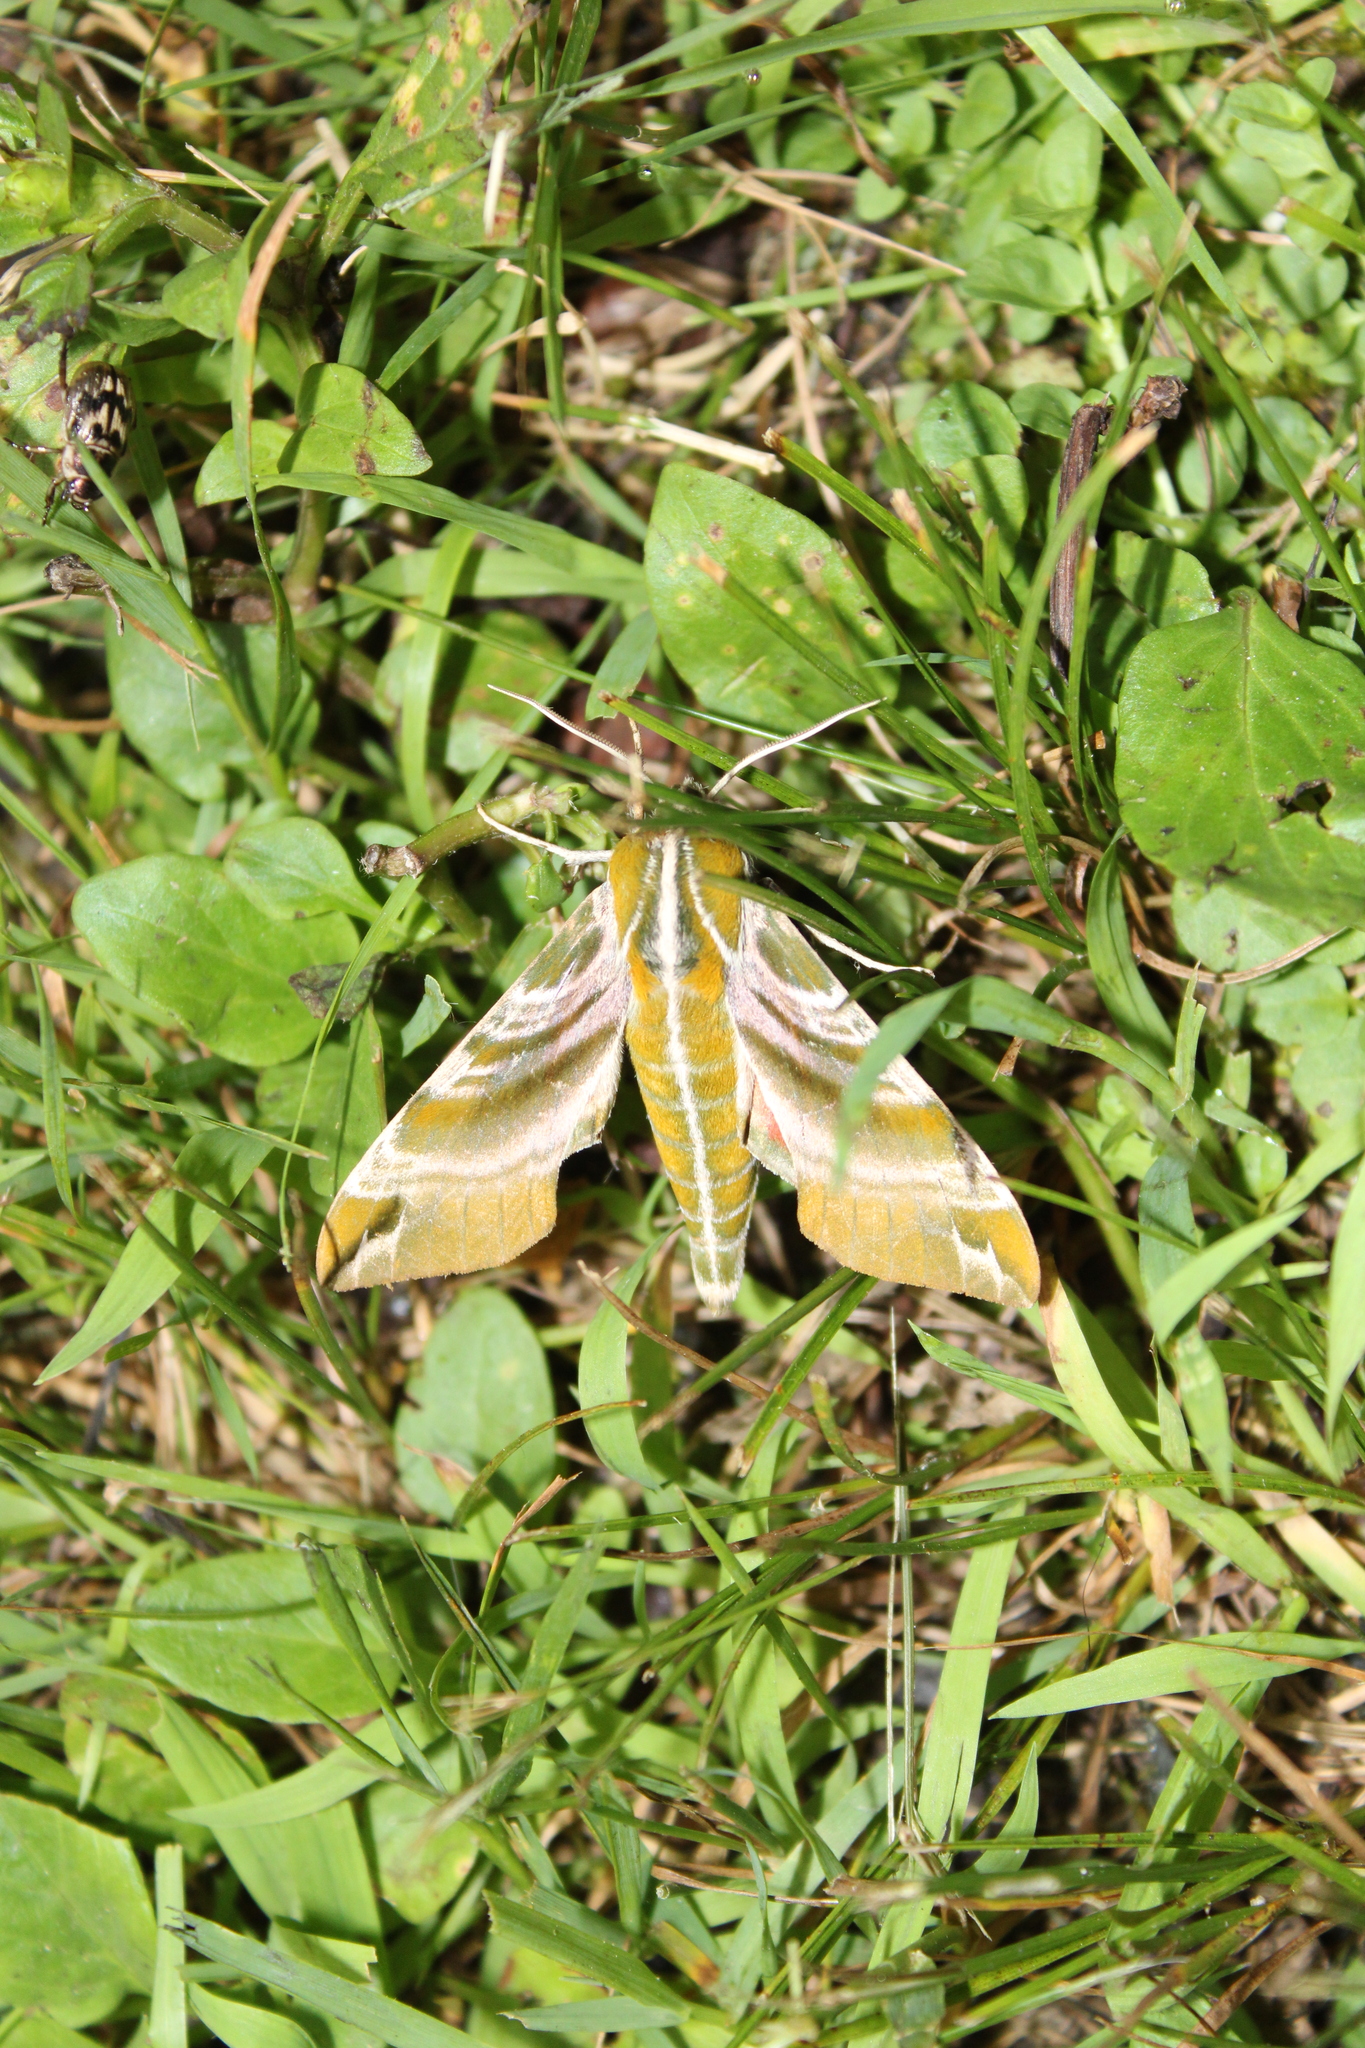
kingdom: Animalia
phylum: Arthropoda
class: Insecta
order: Lepidoptera
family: Sphingidae
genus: Darapsa
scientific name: Darapsa versicolor
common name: Hydrangea sphinx
